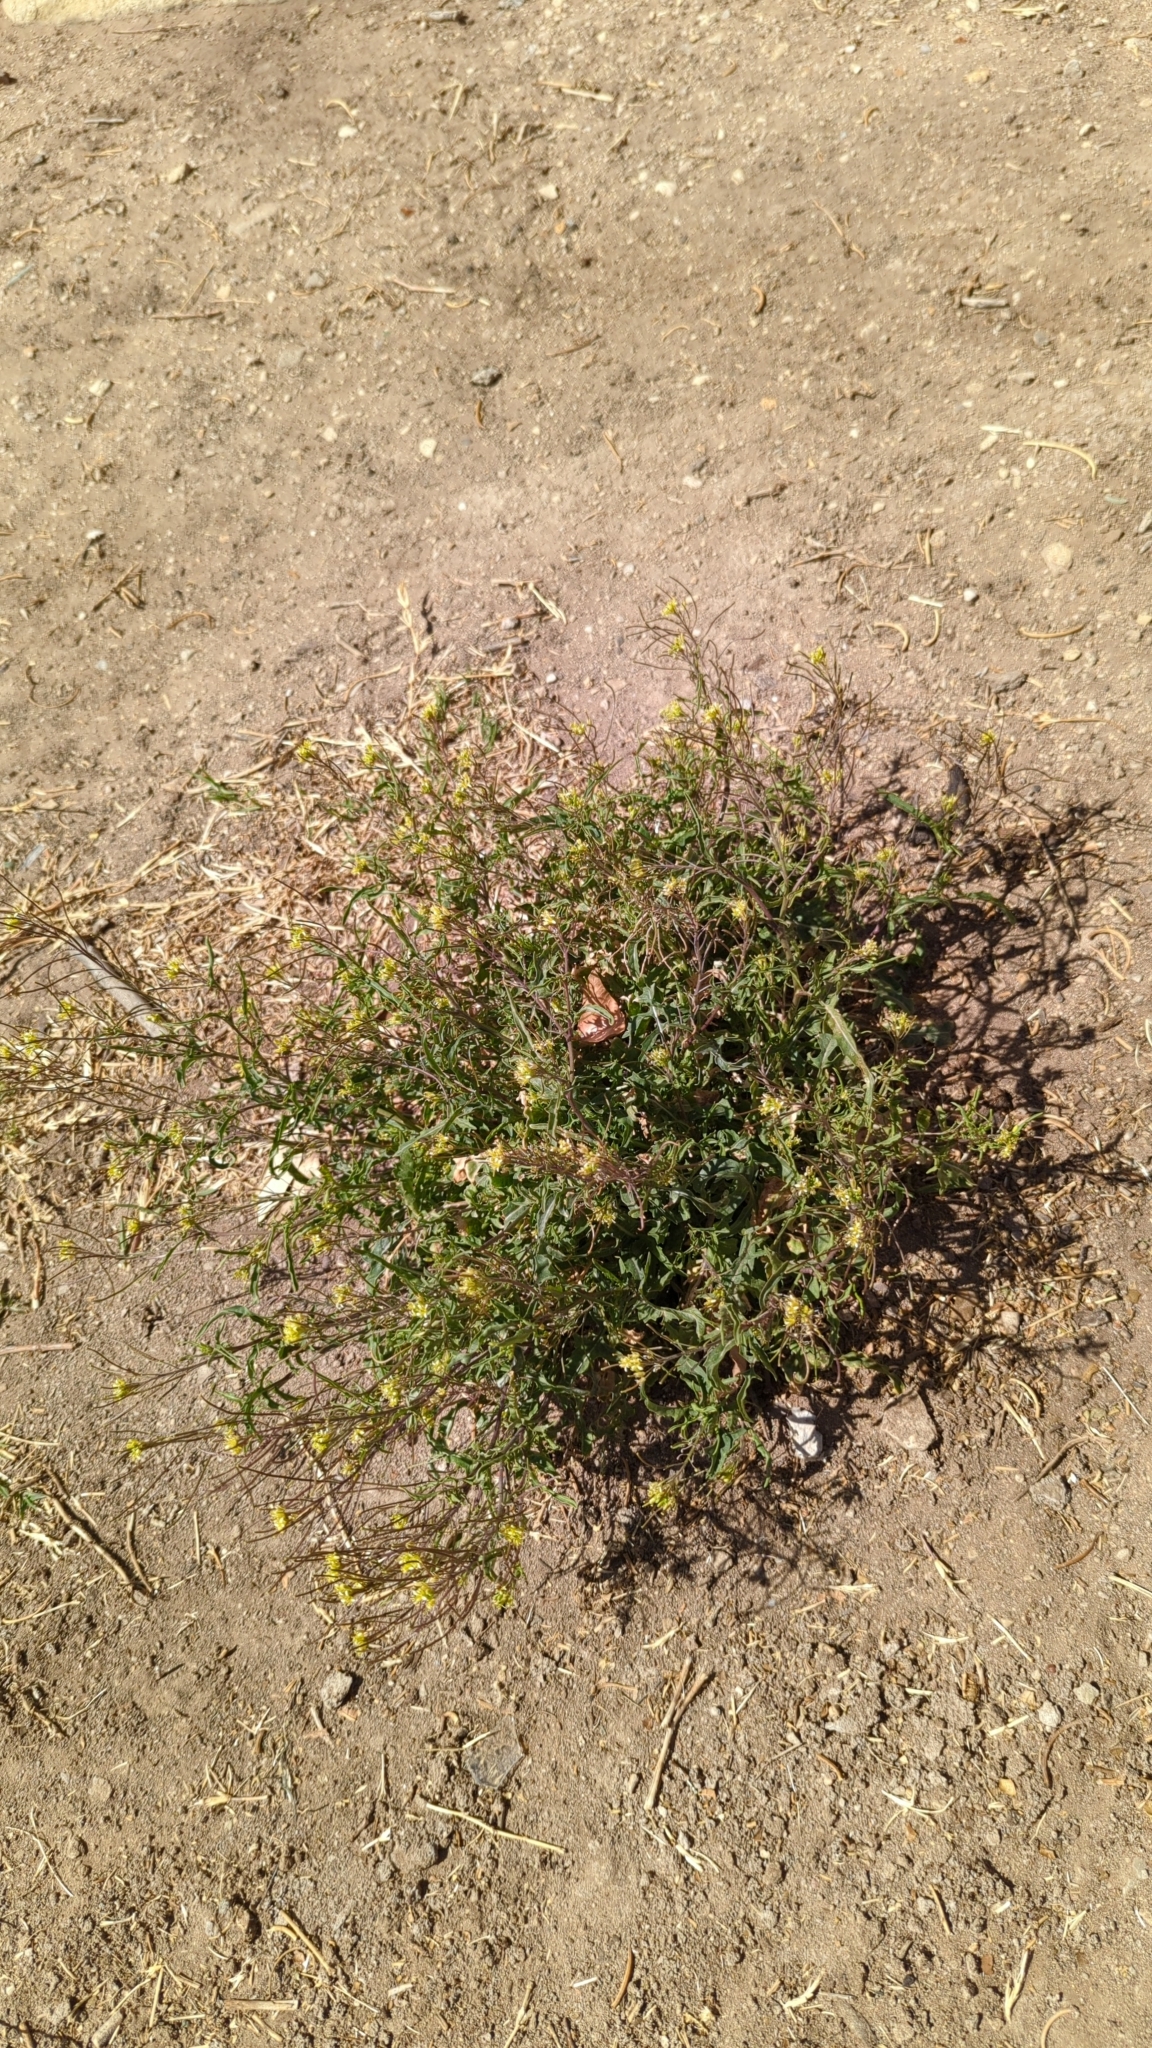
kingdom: Plantae
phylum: Tracheophyta
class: Magnoliopsida
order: Brassicales
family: Brassicaceae
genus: Sisymbrium
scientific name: Sisymbrium irio
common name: London rocket
